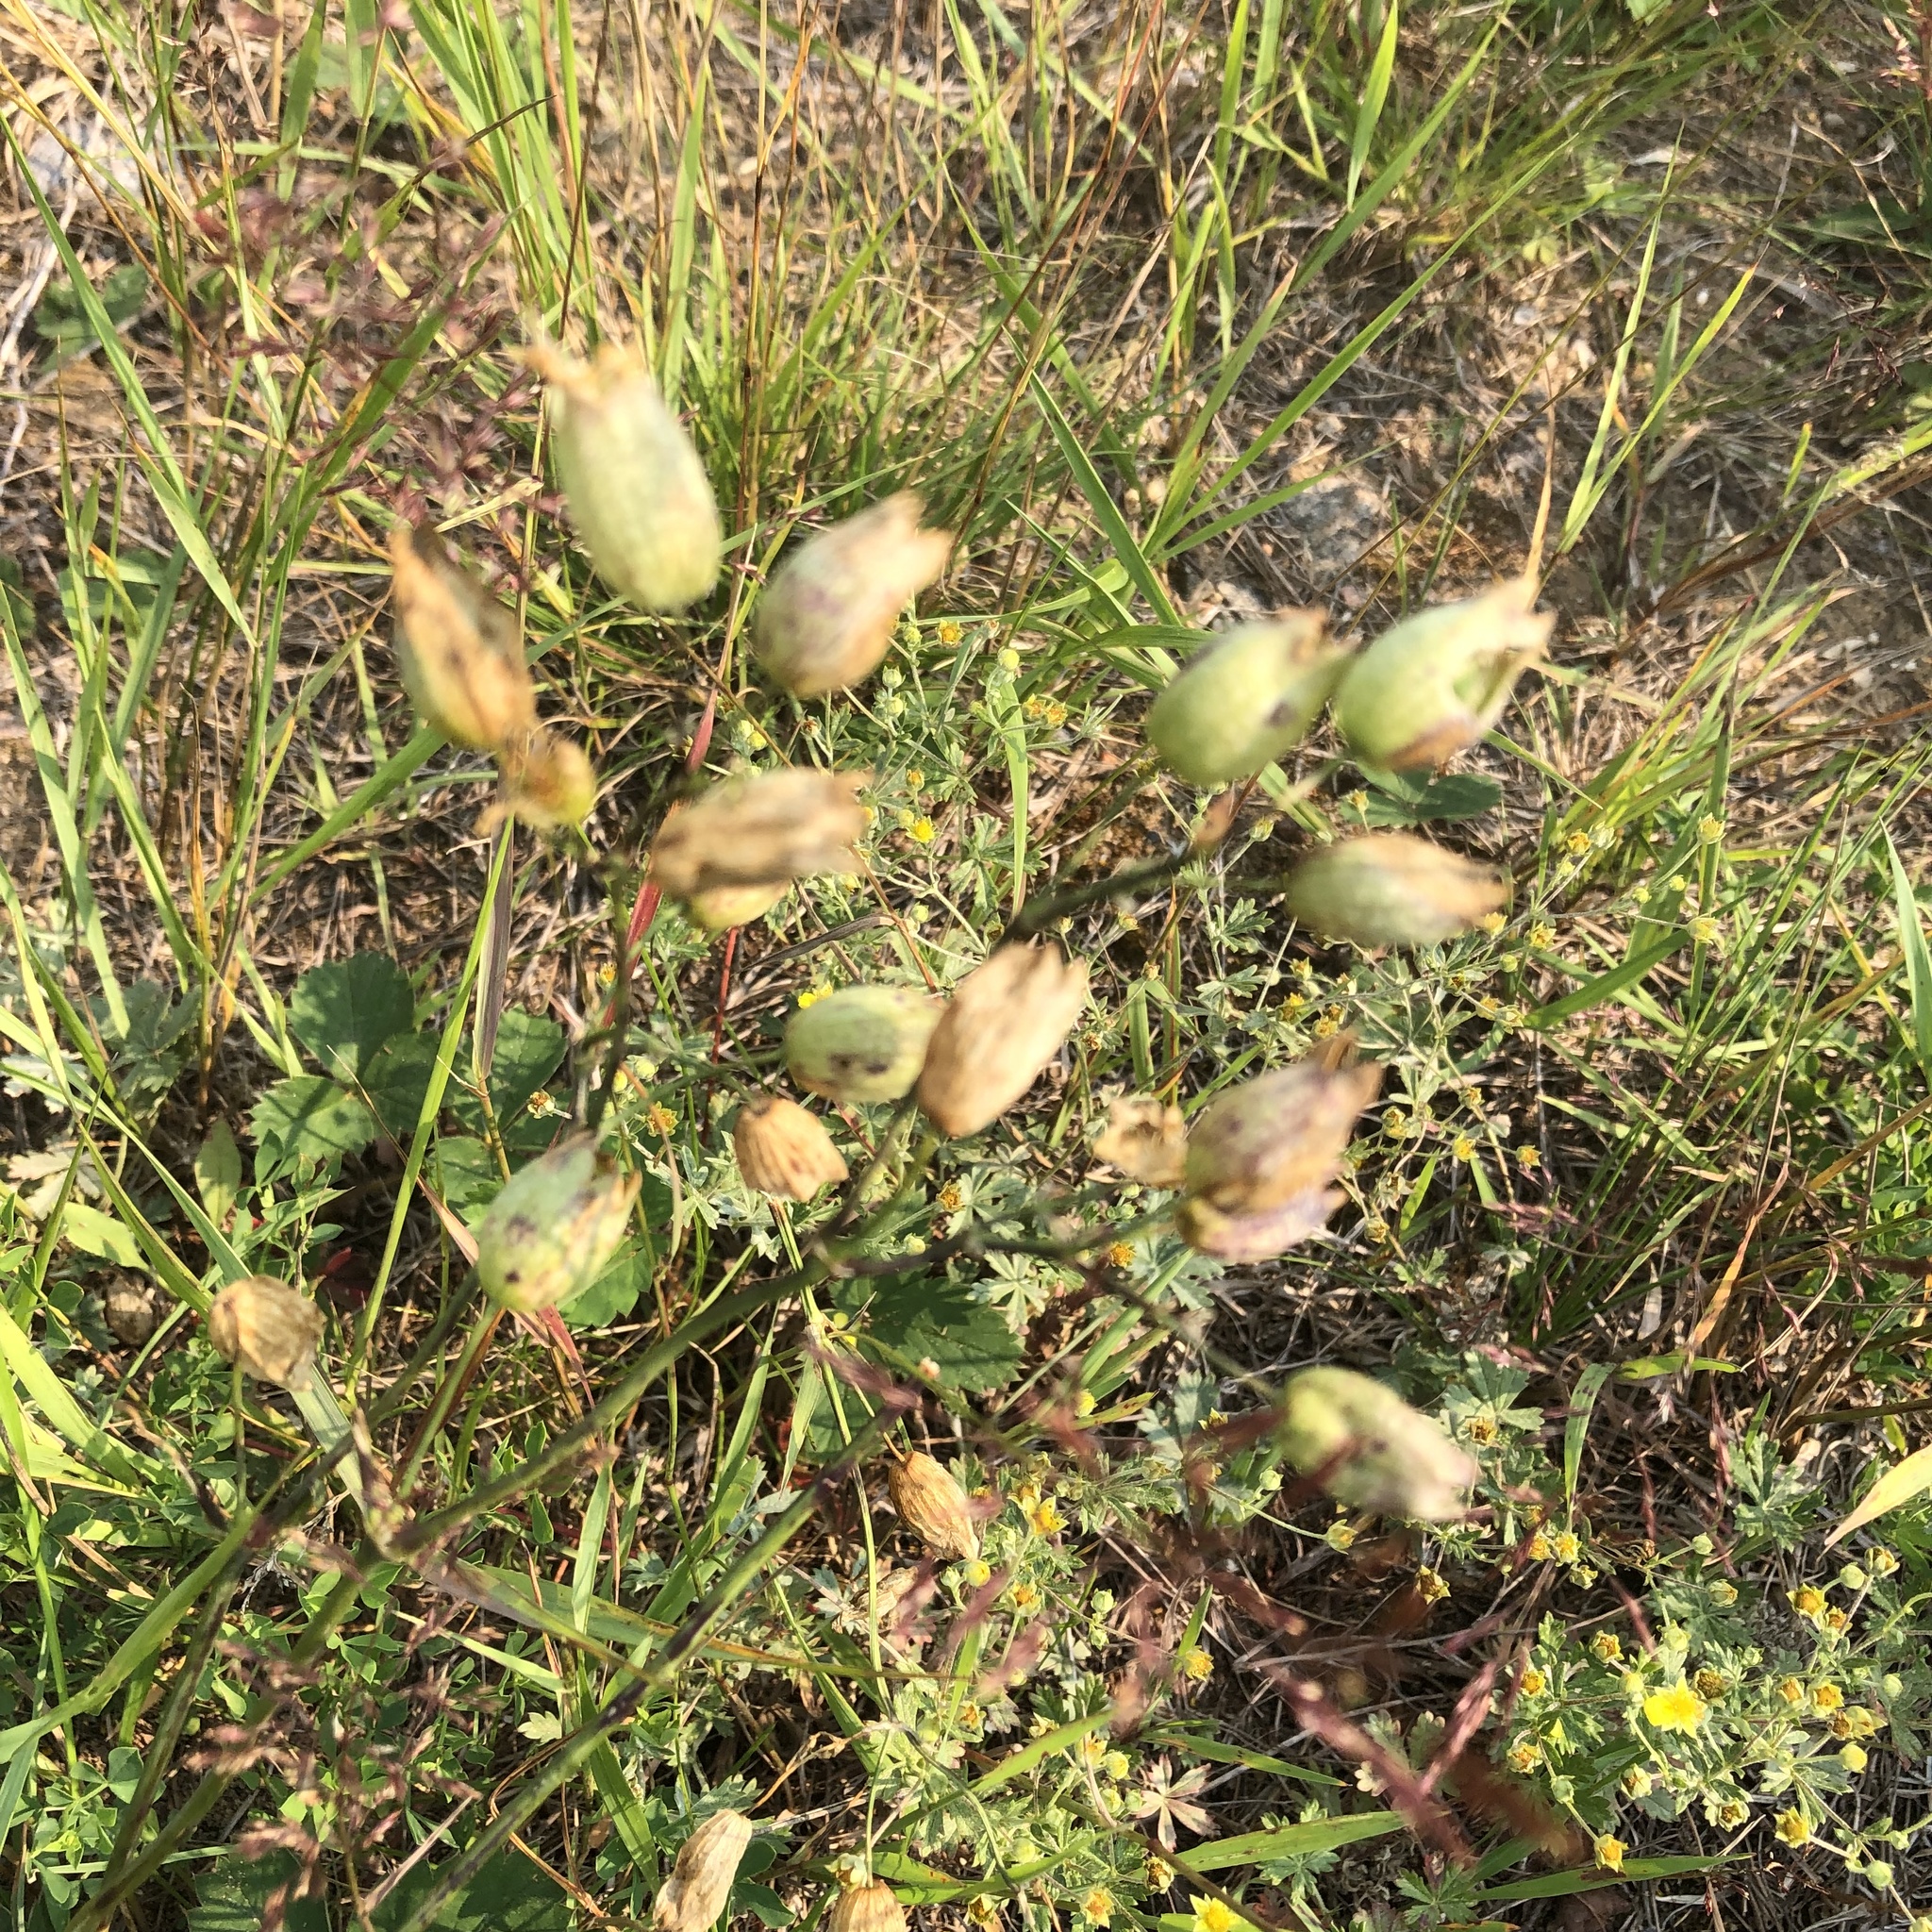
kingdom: Plantae
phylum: Tracheophyta
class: Magnoliopsida
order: Caryophyllales
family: Caryophyllaceae
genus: Silene
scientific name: Silene vulgaris
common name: Bladder campion
